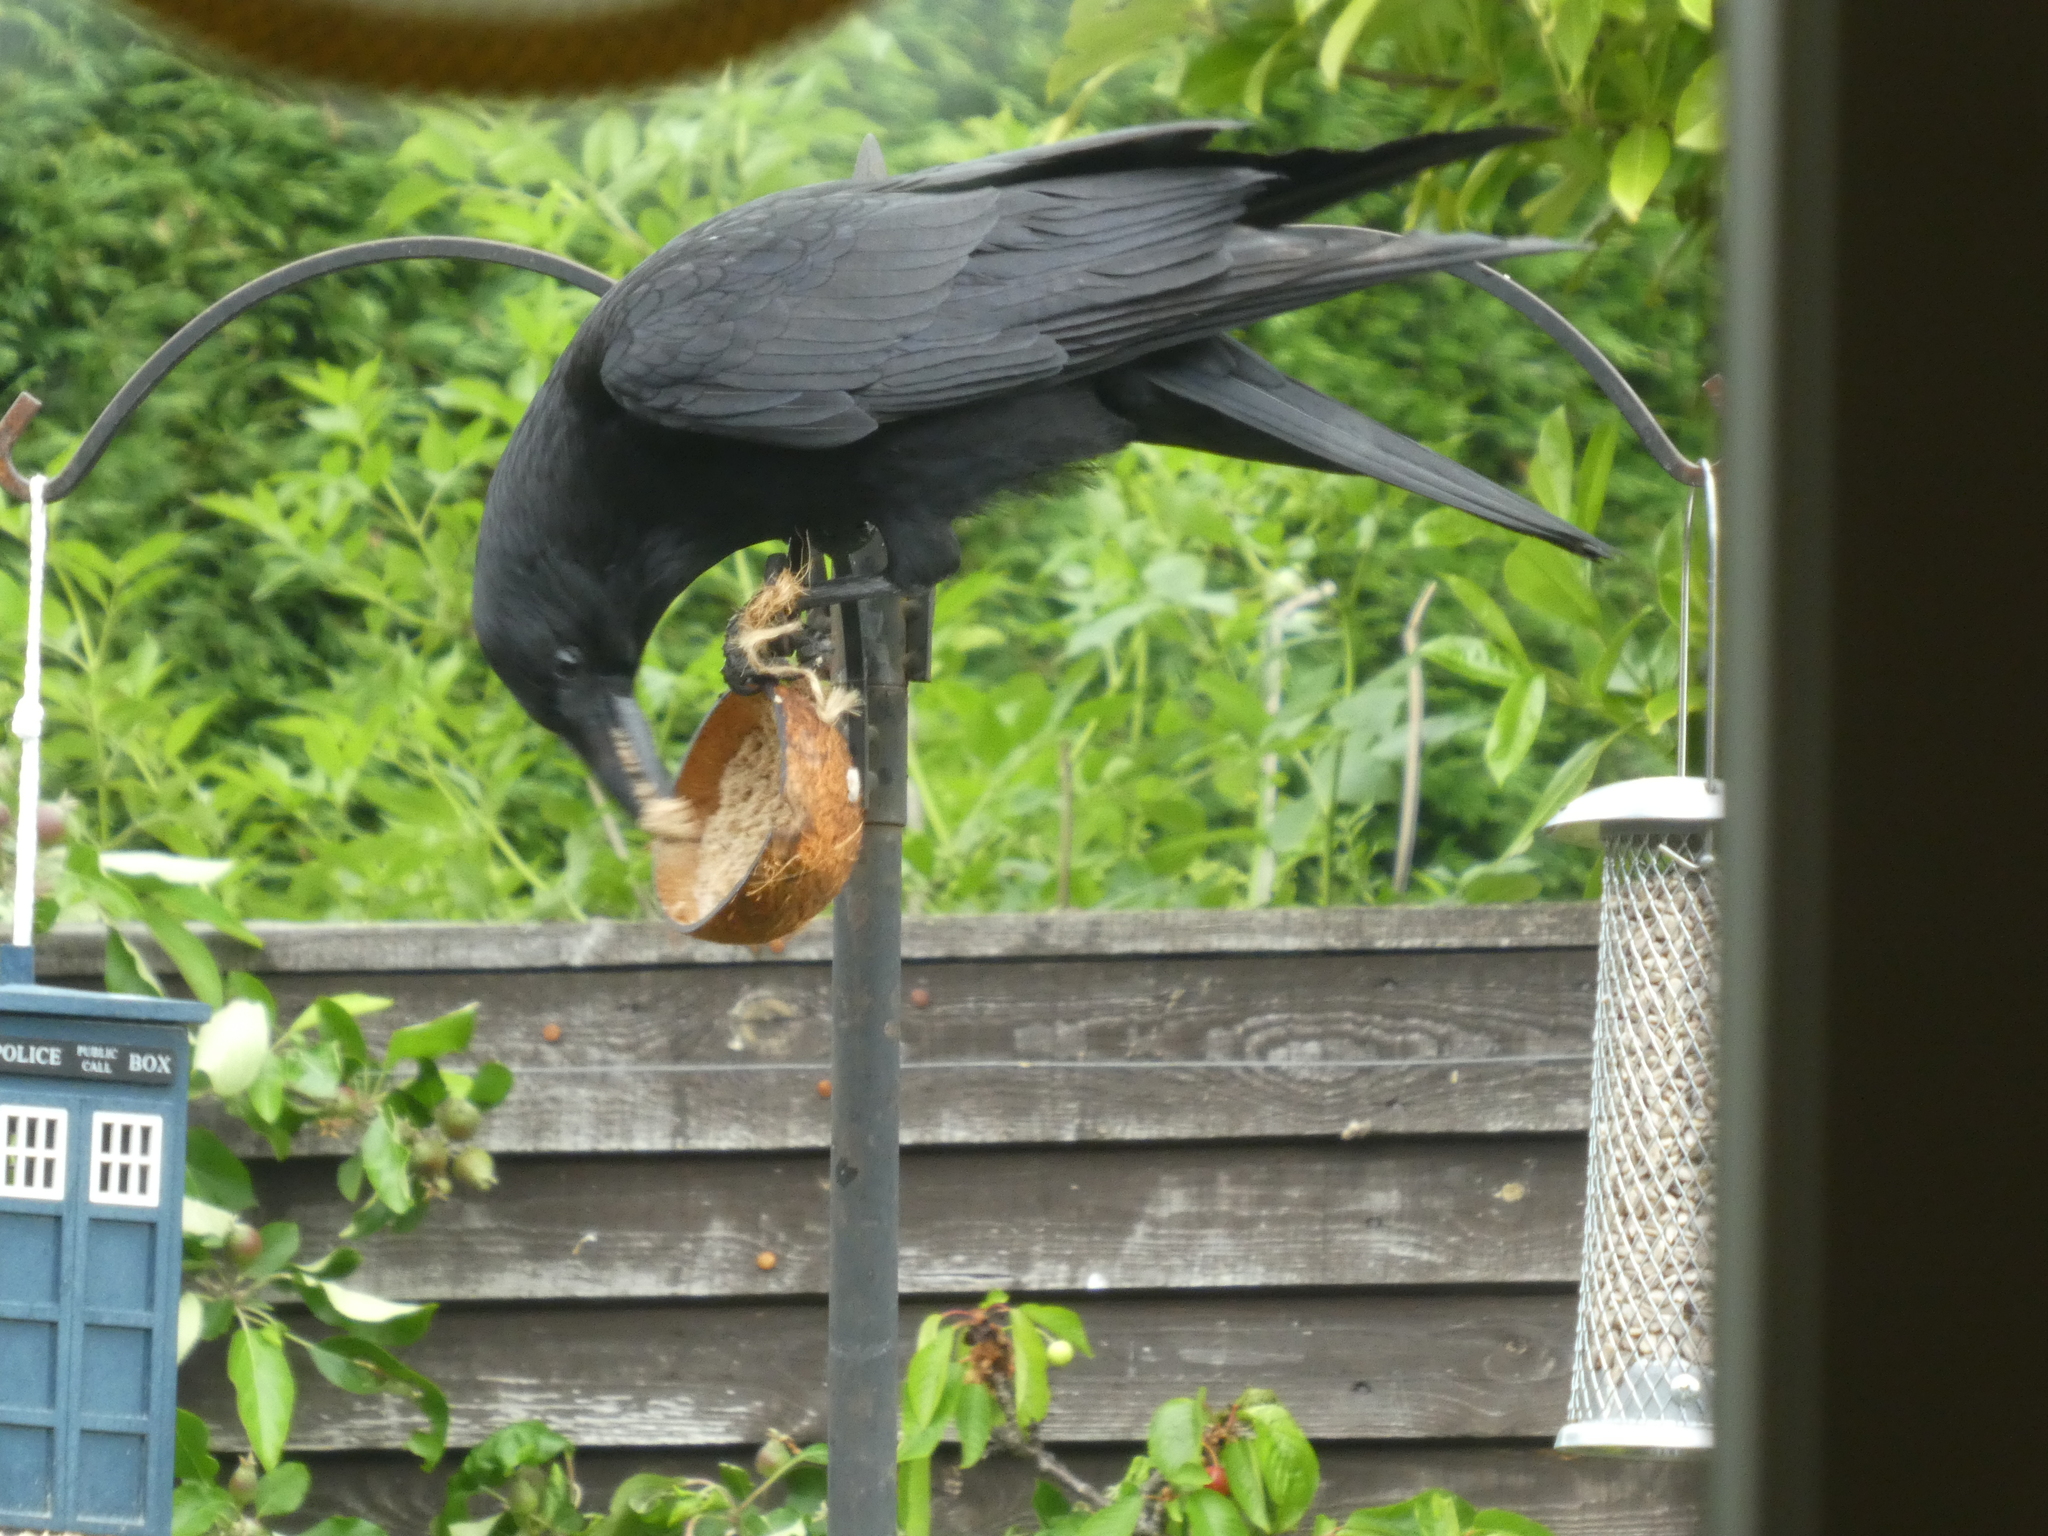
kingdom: Animalia
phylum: Chordata
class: Aves
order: Passeriformes
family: Corvidae
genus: Corvus
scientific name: Corvus corone
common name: Carrion crow
